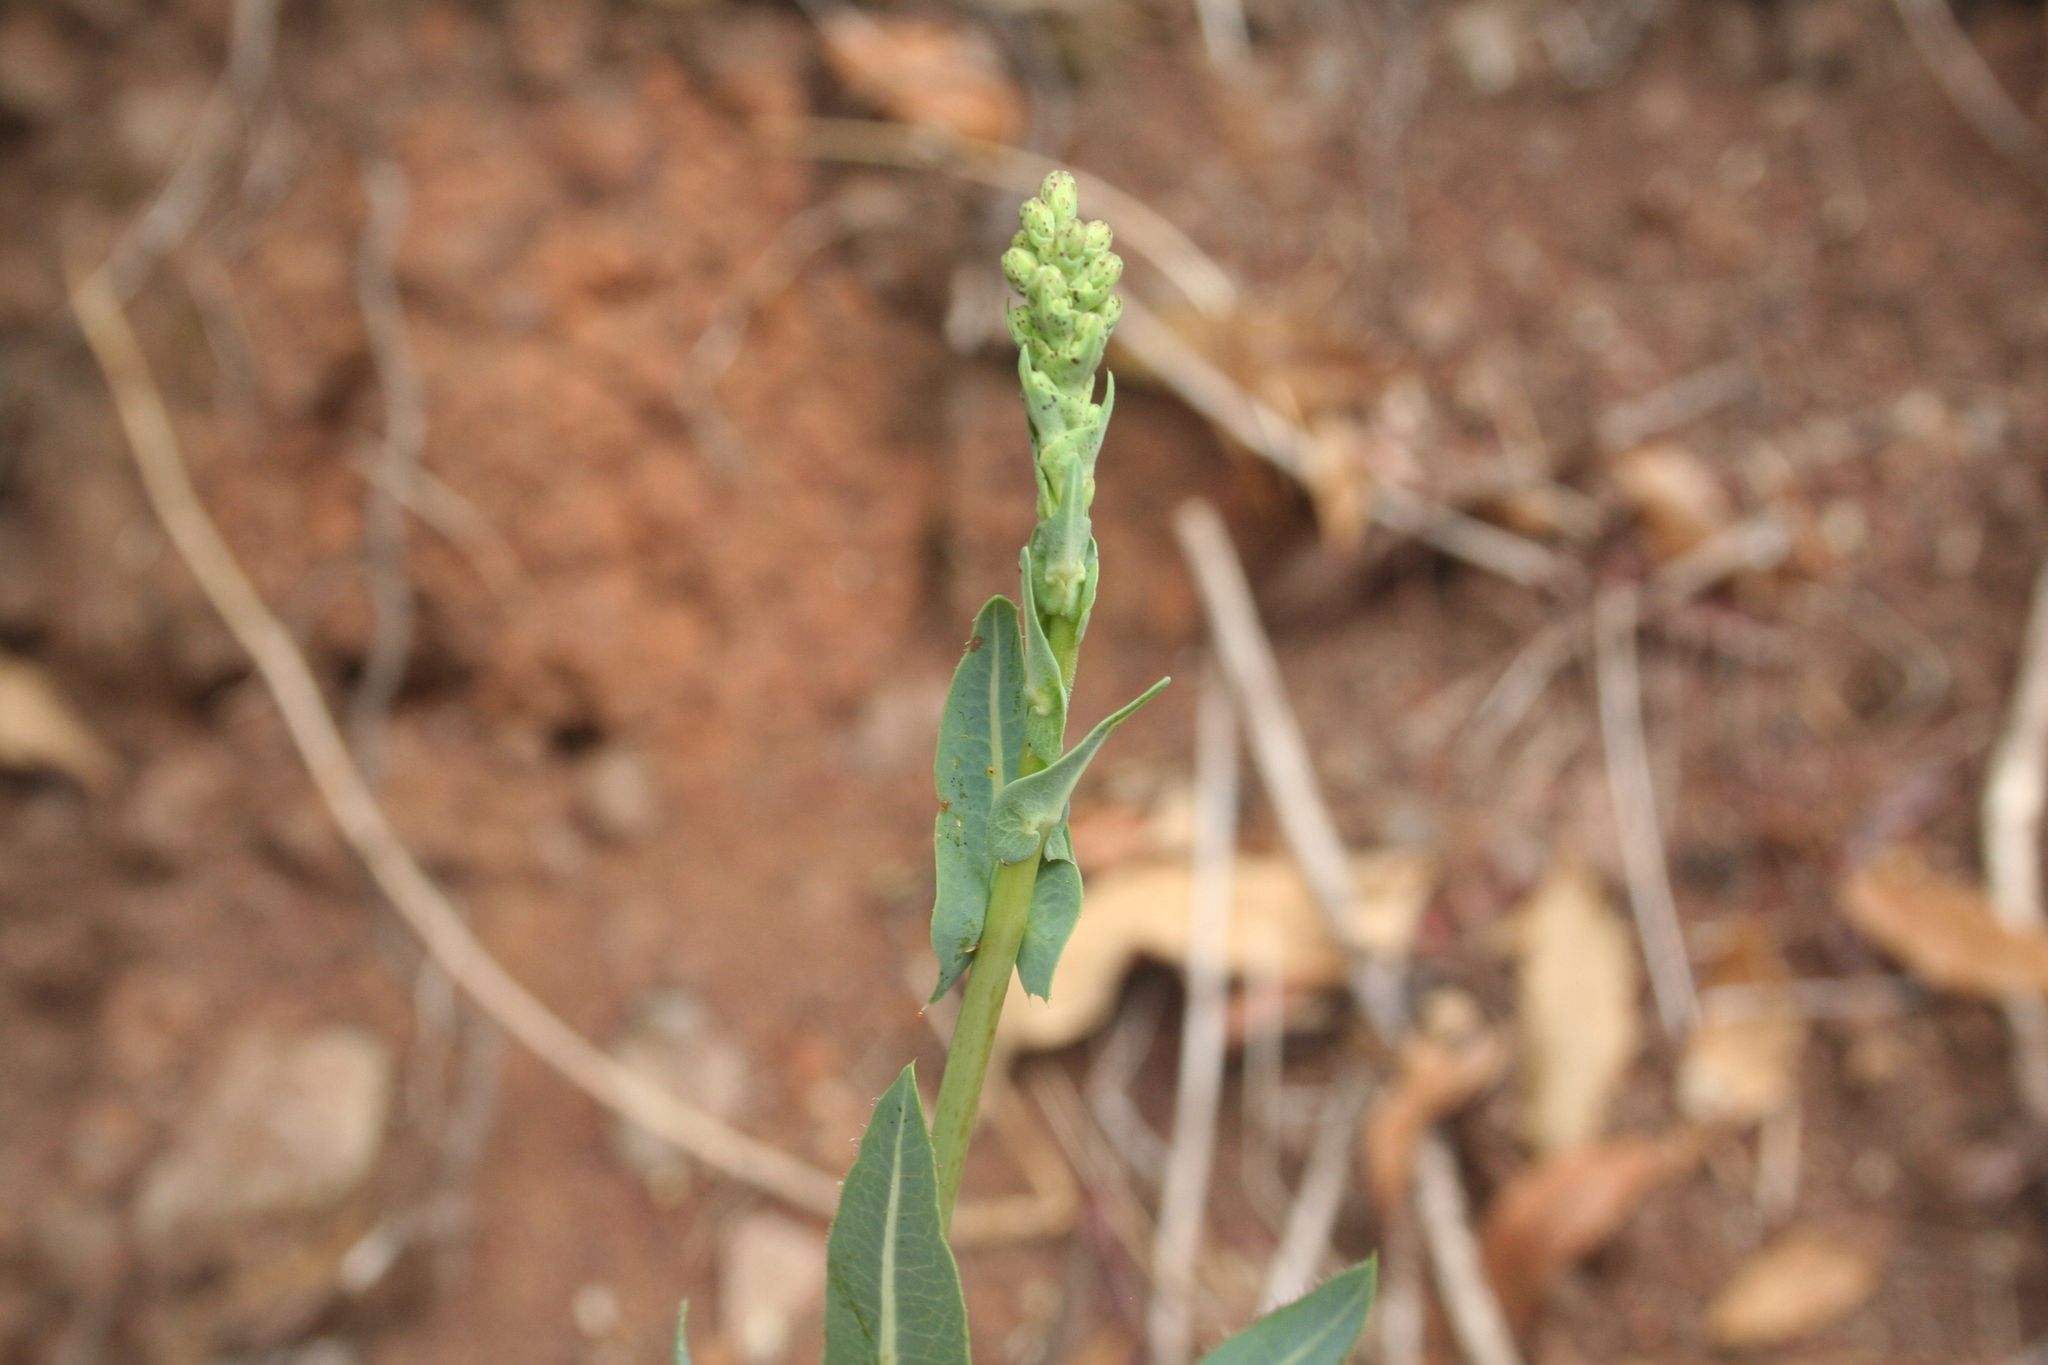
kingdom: Plantae
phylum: Tracheophyta
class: Magnoliopsida
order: Asterales
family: Asteraceae
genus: Lactuca
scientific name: Lactuca serriola
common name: Prickly lettuce
